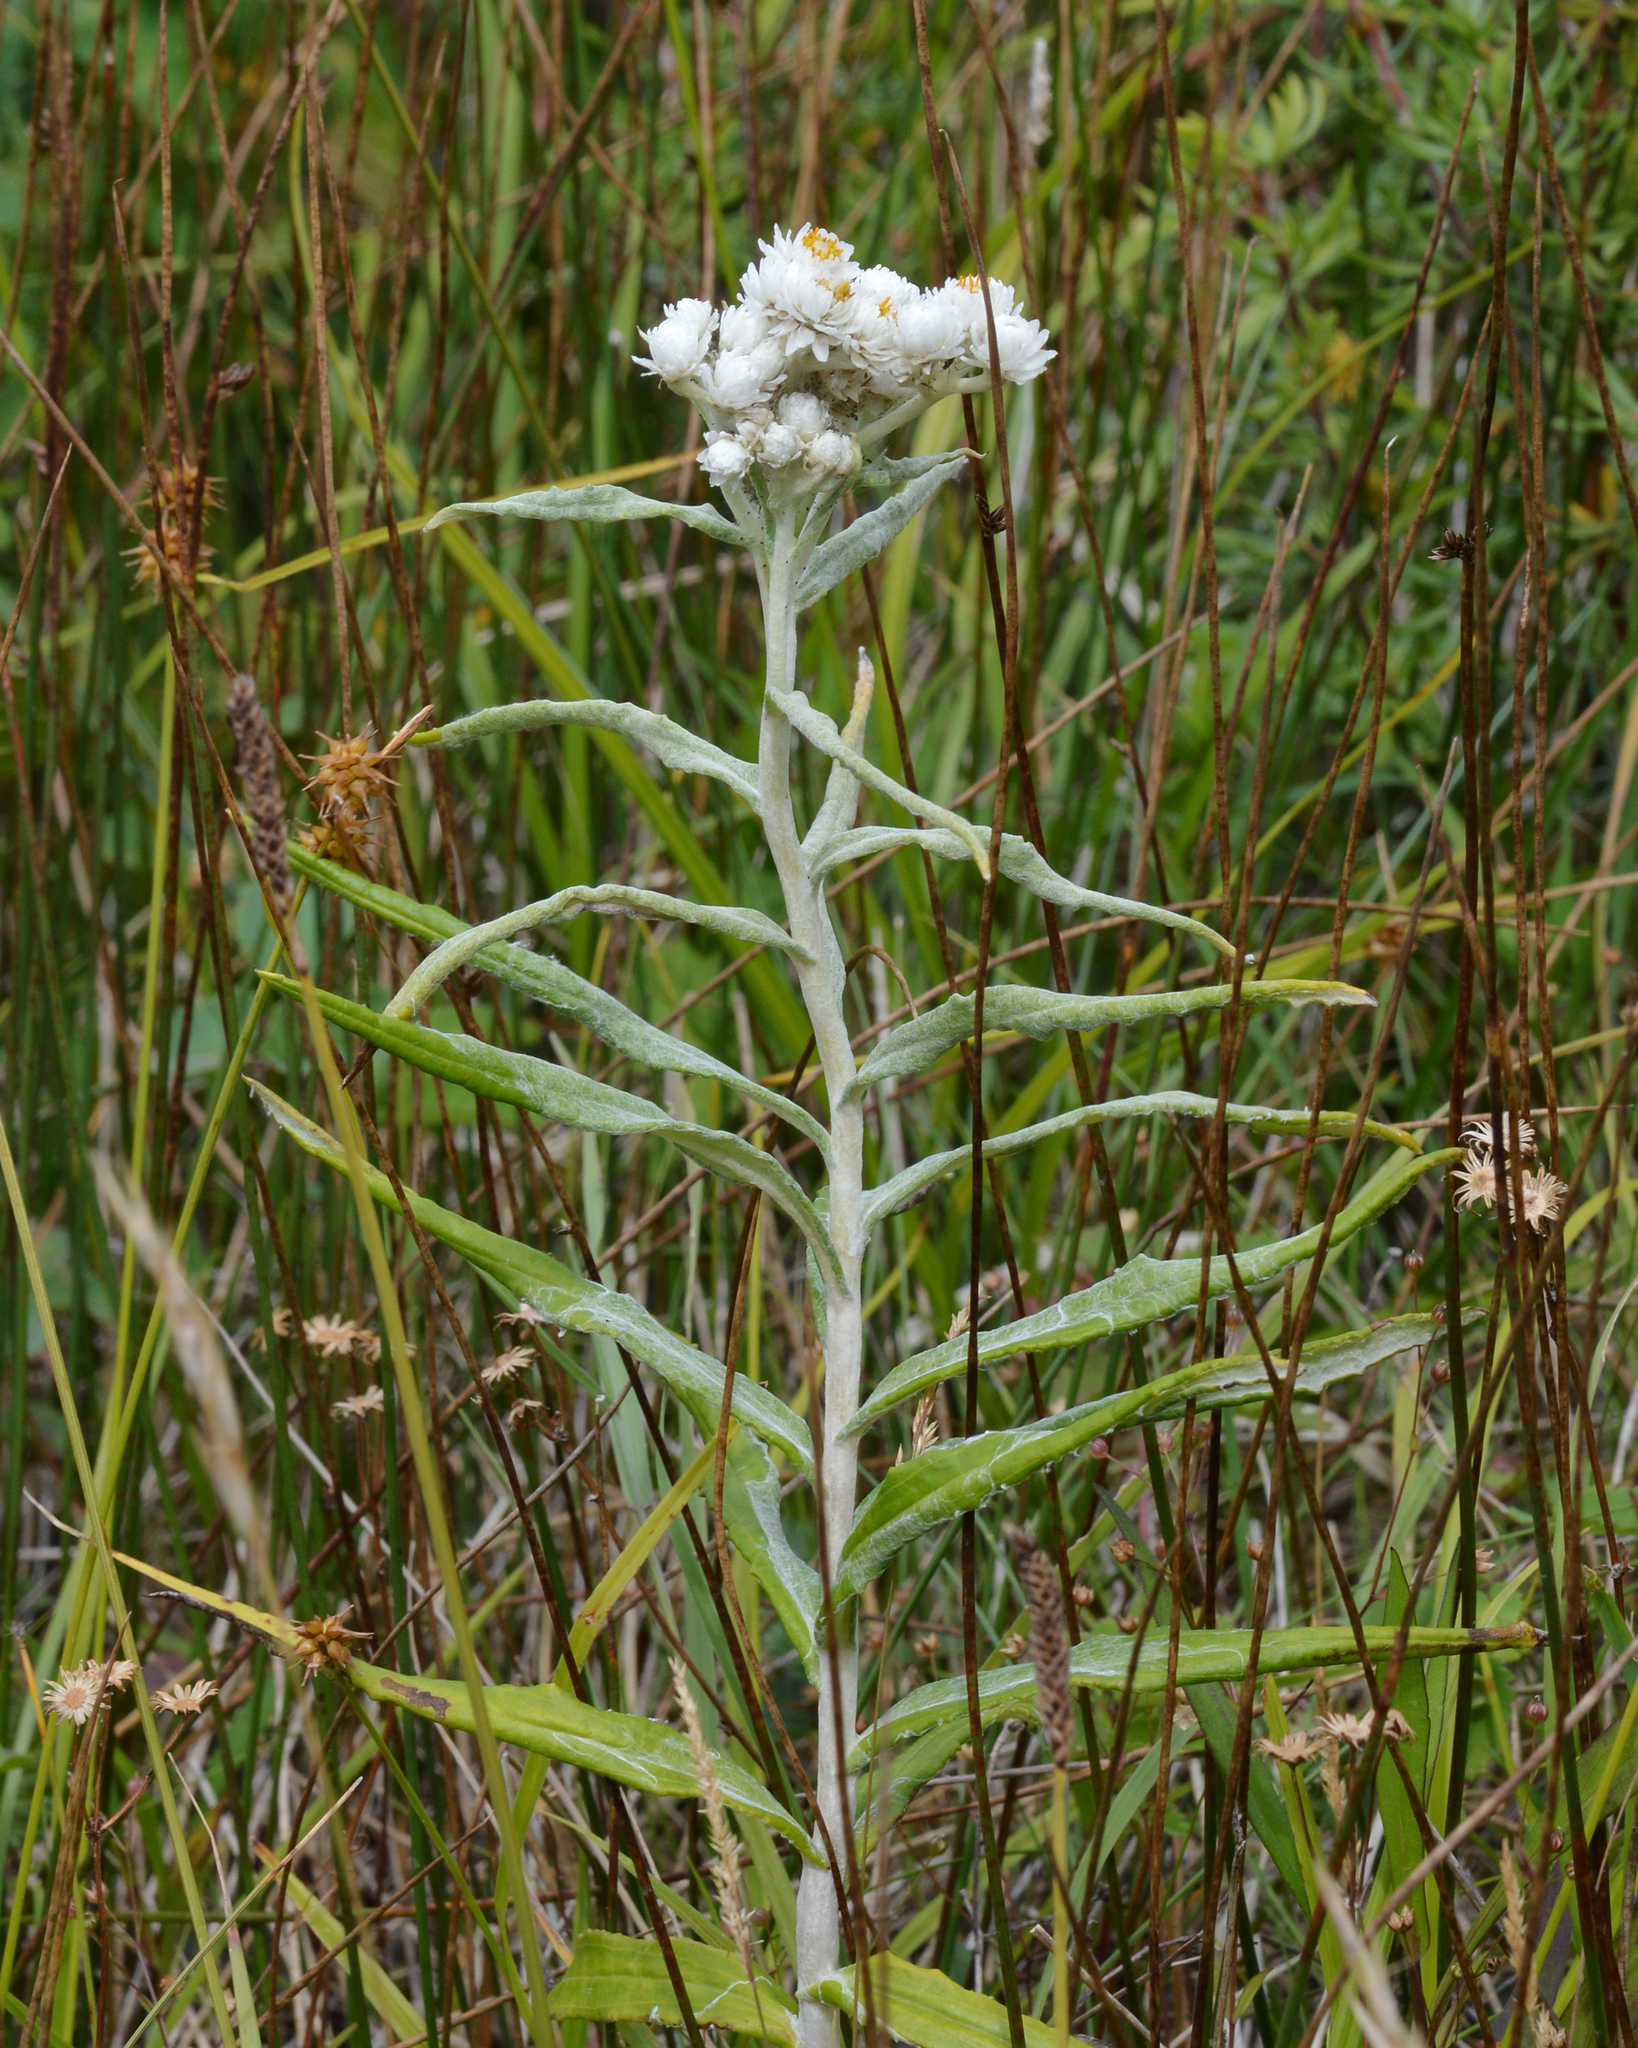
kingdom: Plantae
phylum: Tracheophyta
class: Magnoliopsida
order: Asterales
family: Asteraceae
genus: Anaphalis
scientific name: Anaphalis margaritacea
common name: Pearly everlasting
